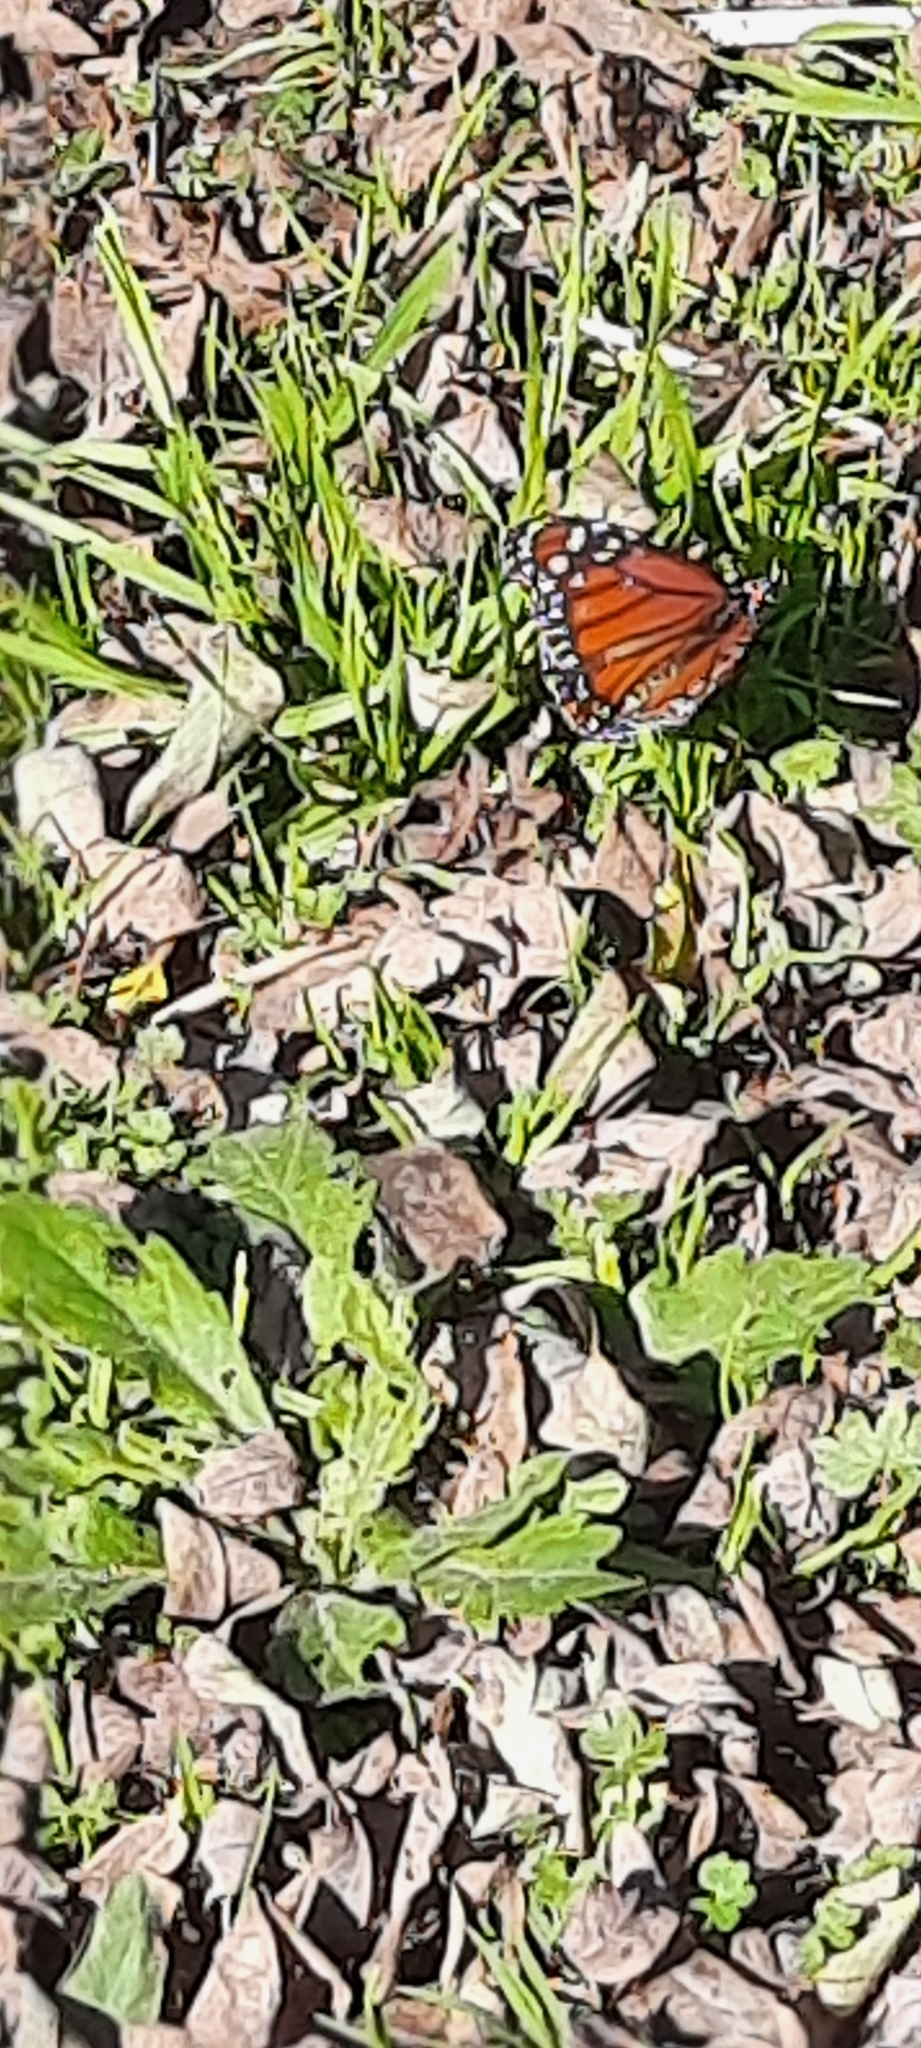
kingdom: Animalia
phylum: Arthropoda
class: Insecta
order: Lepidoptera
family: Nymphalidae
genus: Danaus
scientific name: Danaus erippus
